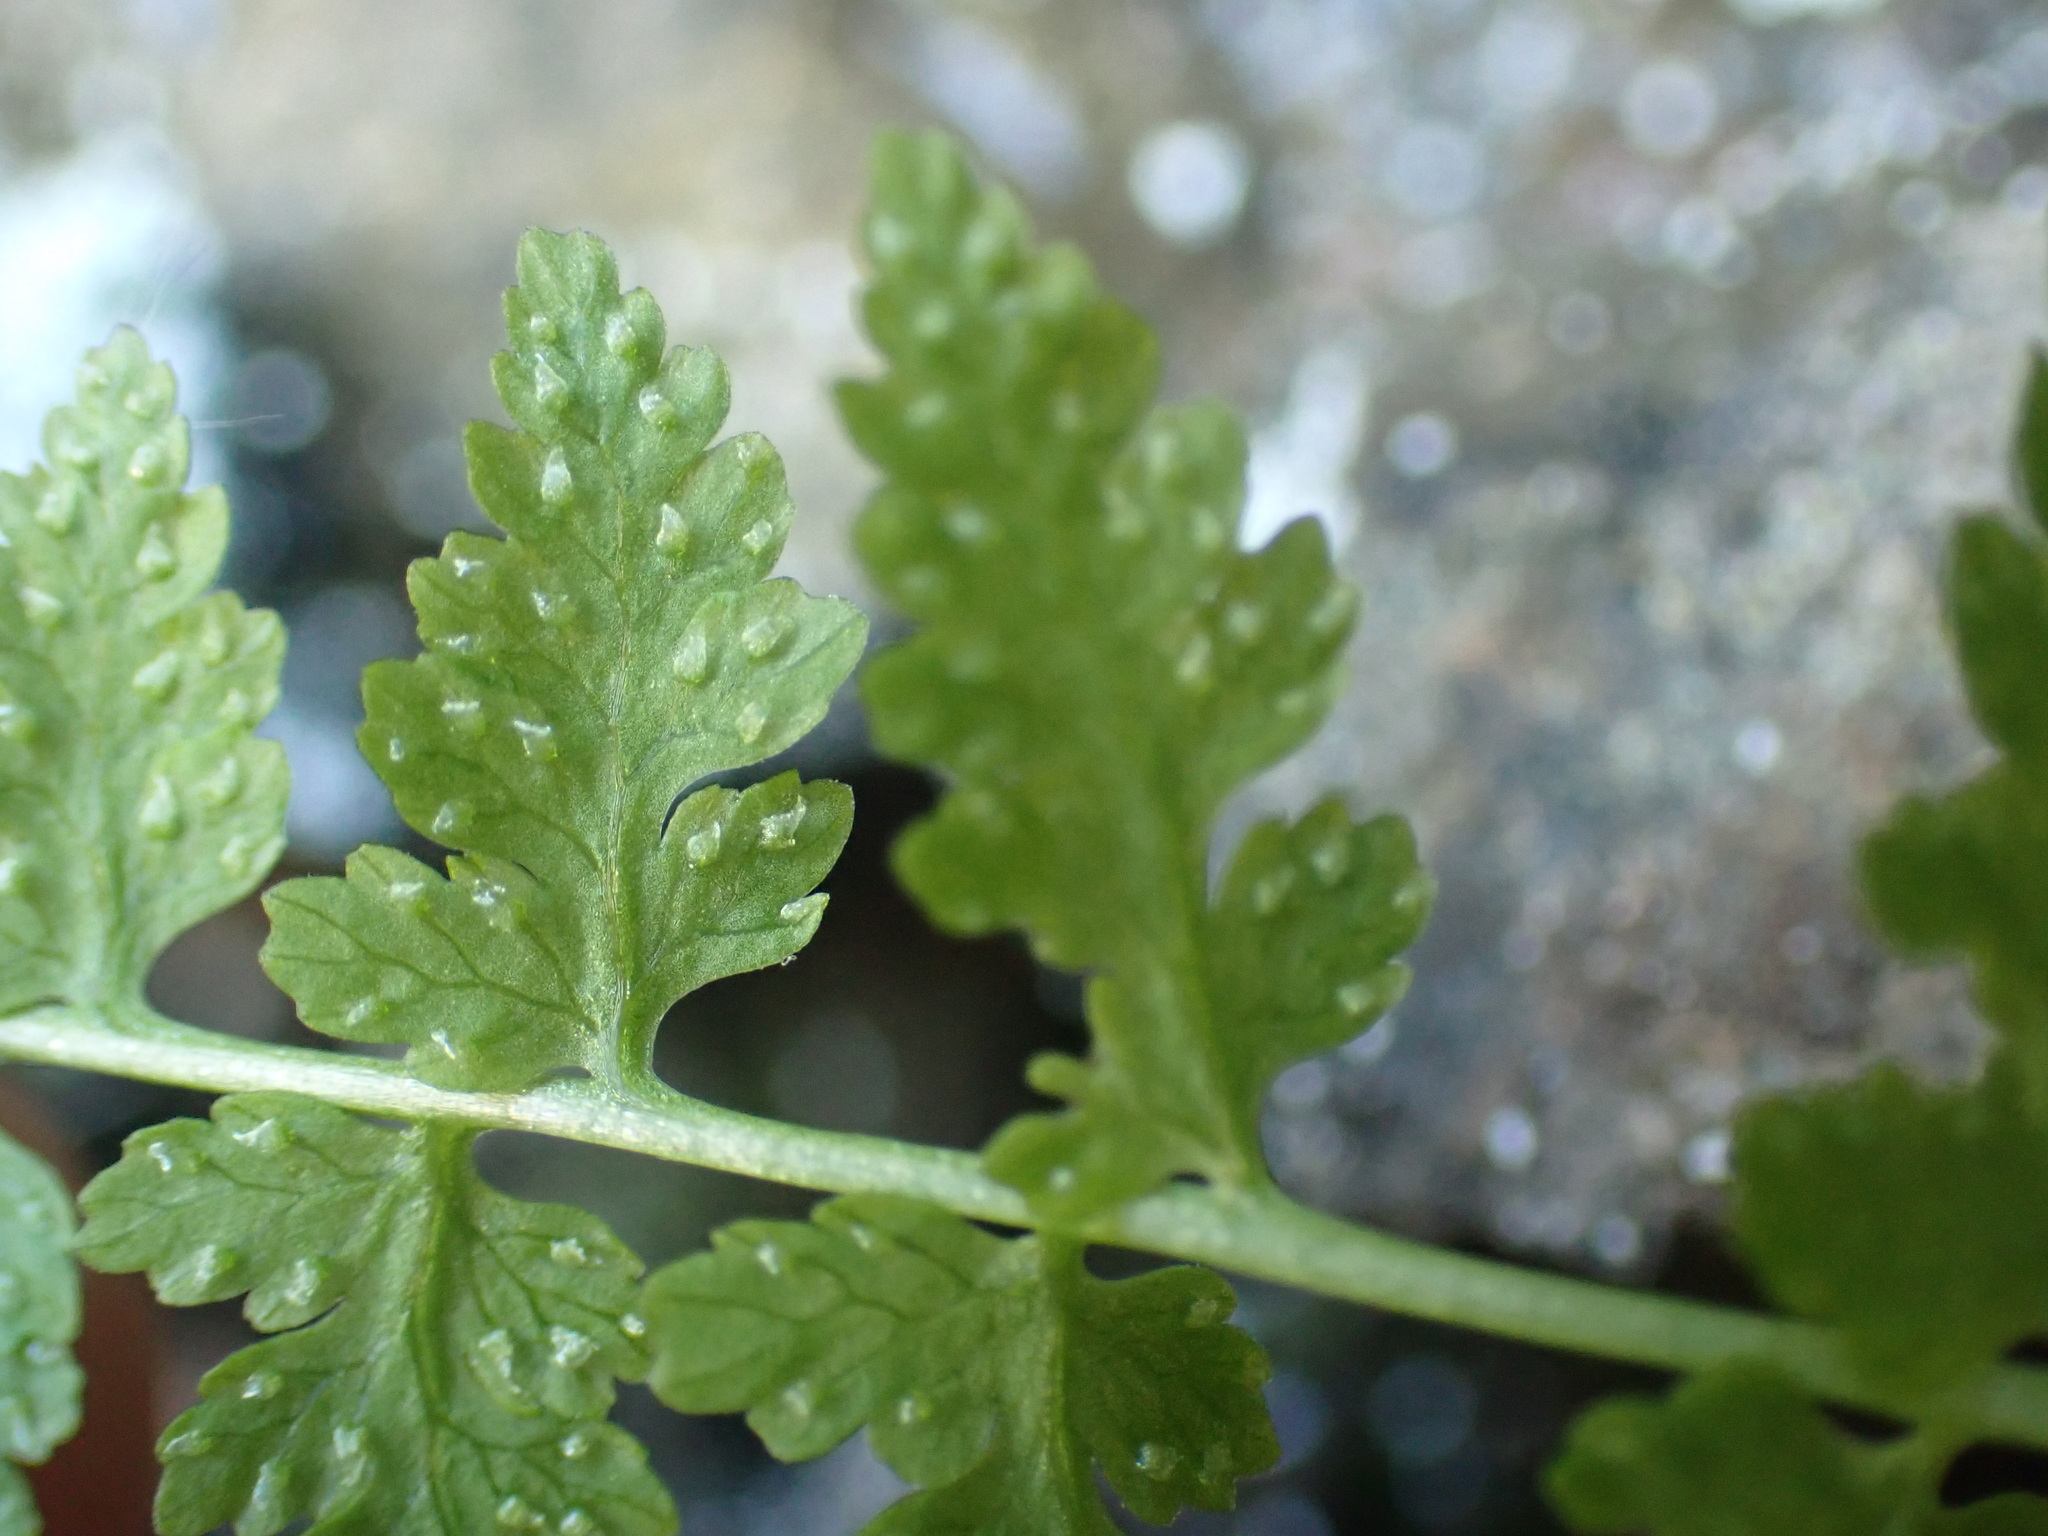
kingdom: Plantae
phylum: Tracheophyta
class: Polypodiopsida
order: Polypodiales
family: Cystopteridaceae
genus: Cystopteris
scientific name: Cystopteris fragilis
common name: Brittle bladder fern
